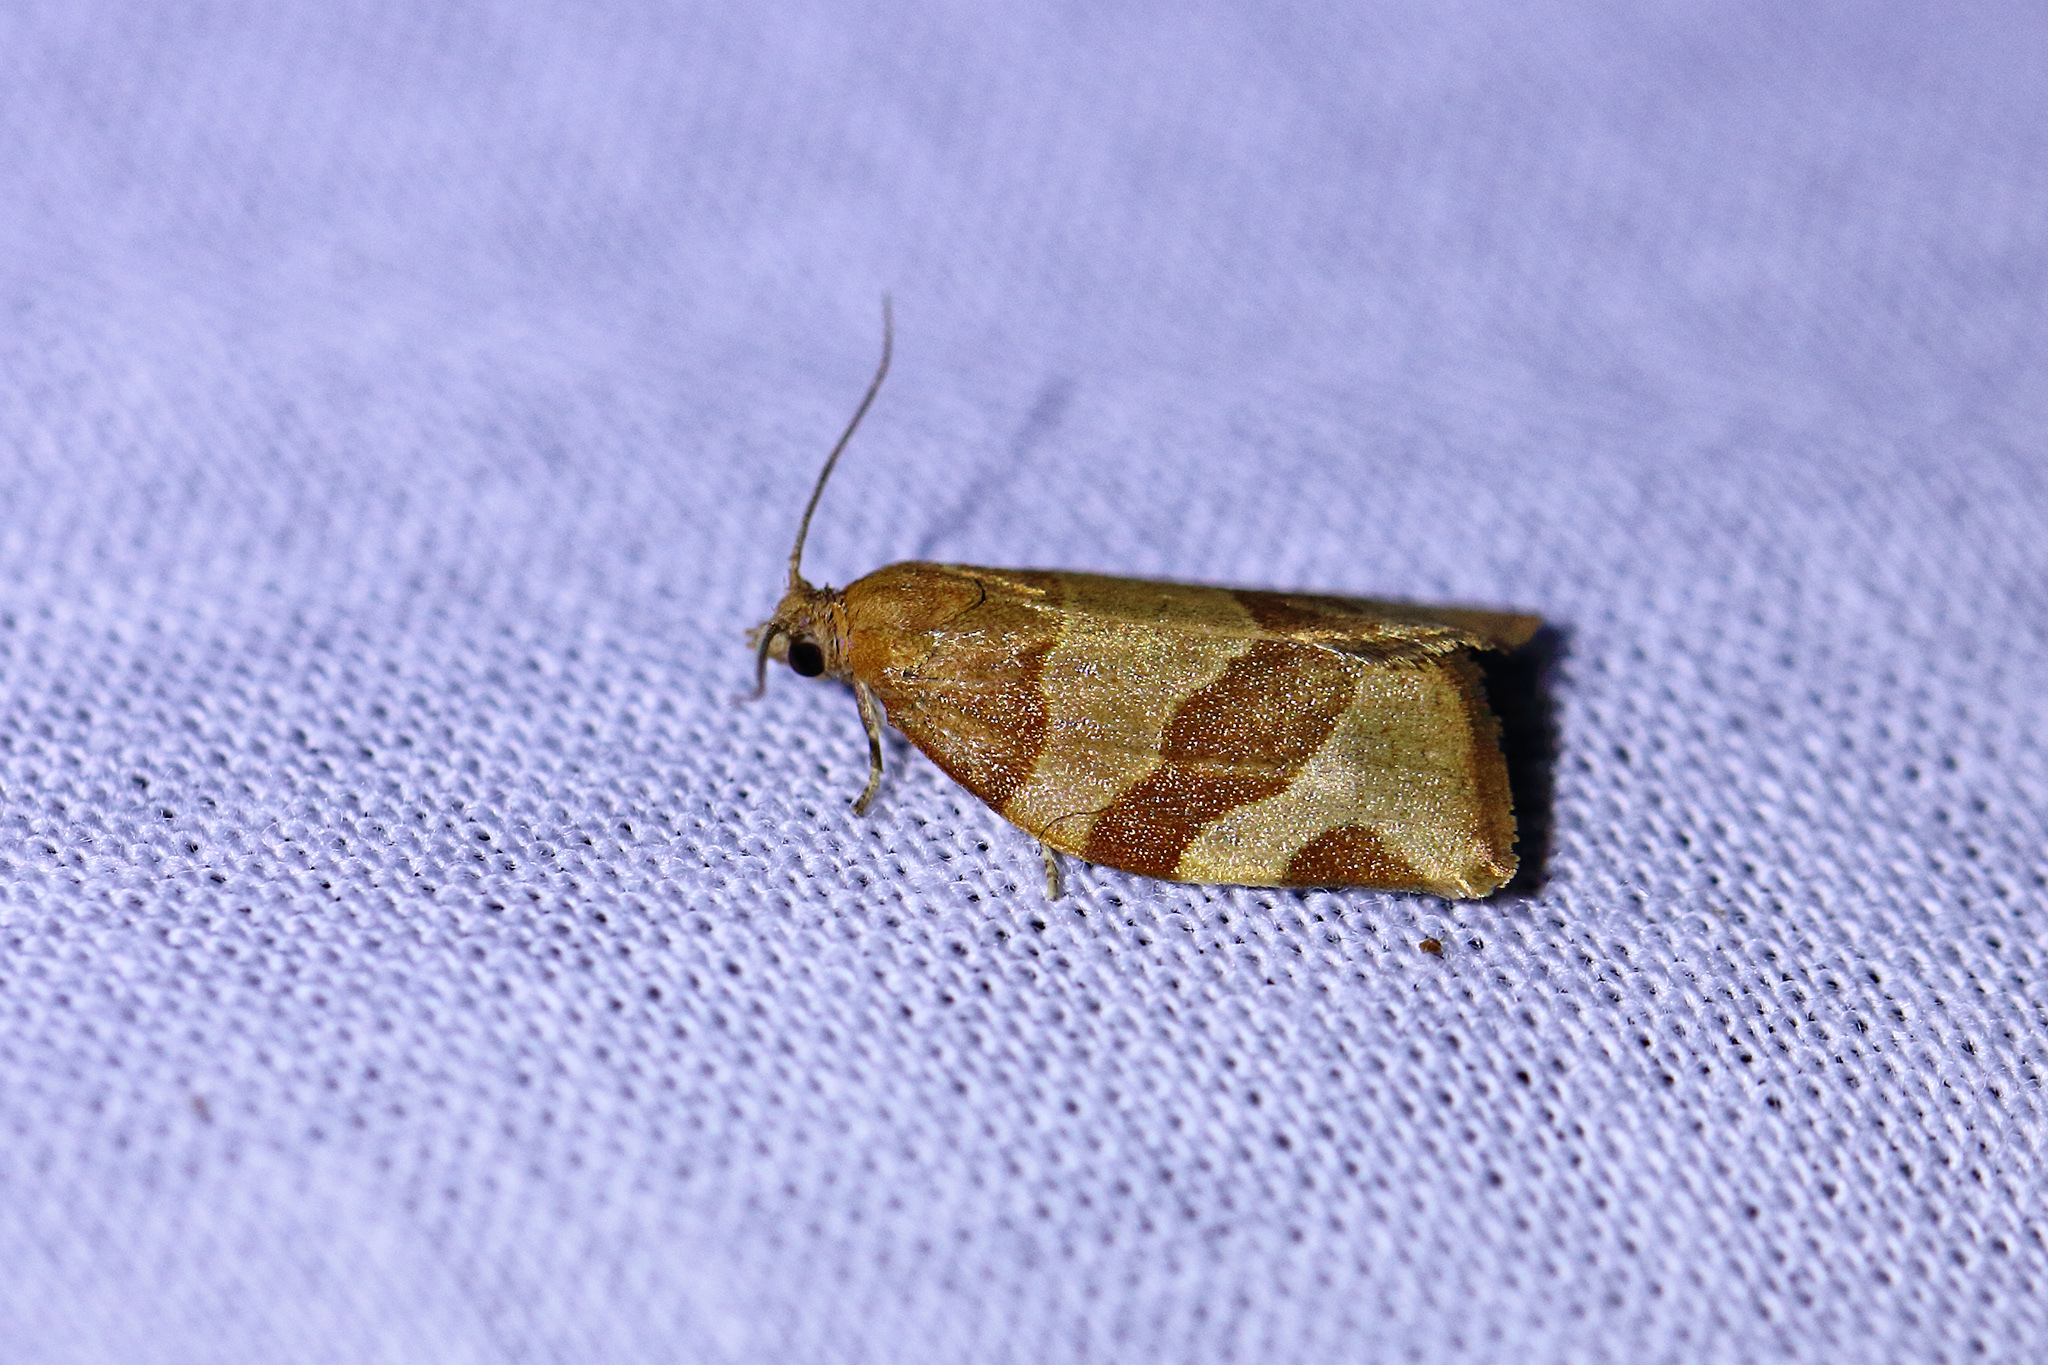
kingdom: Animalia
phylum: Arthropoda
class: Insecta
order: Lepidoptera
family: Tortricidae
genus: Pandemis
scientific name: Pandemis cerasana
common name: Barred fruit-tree tortrix
